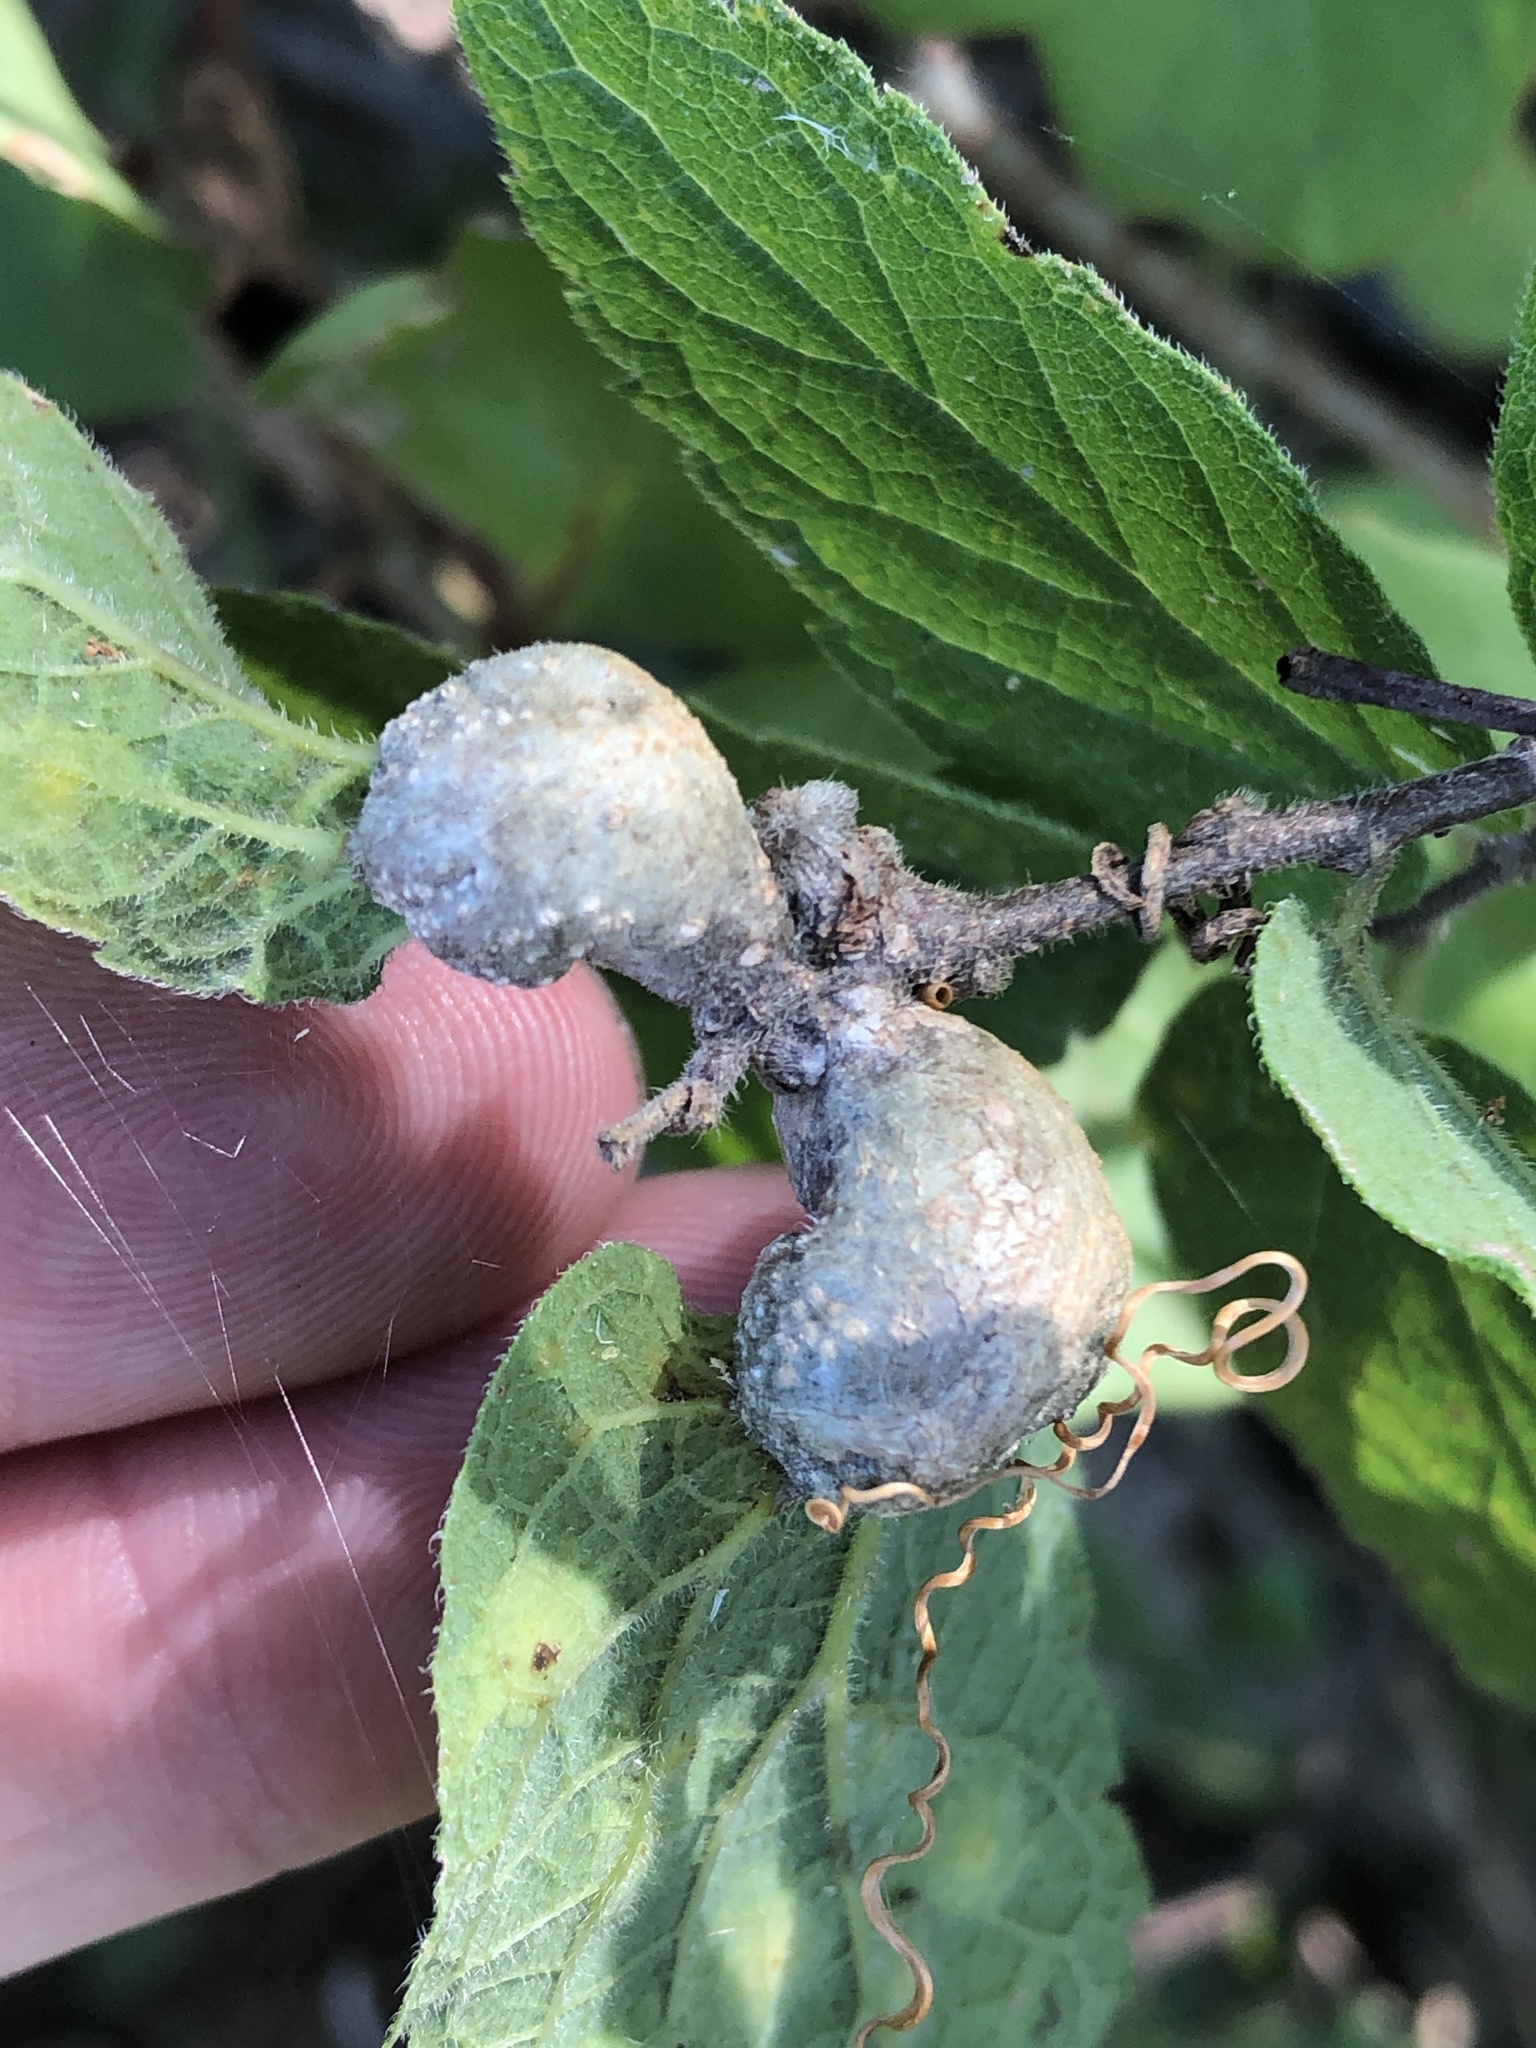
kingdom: Animalia
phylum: Arthropoda
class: Insecta
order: Hemiptera
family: Aphalaridae
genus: Pachypsylla
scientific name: Pachypsylla venusta
